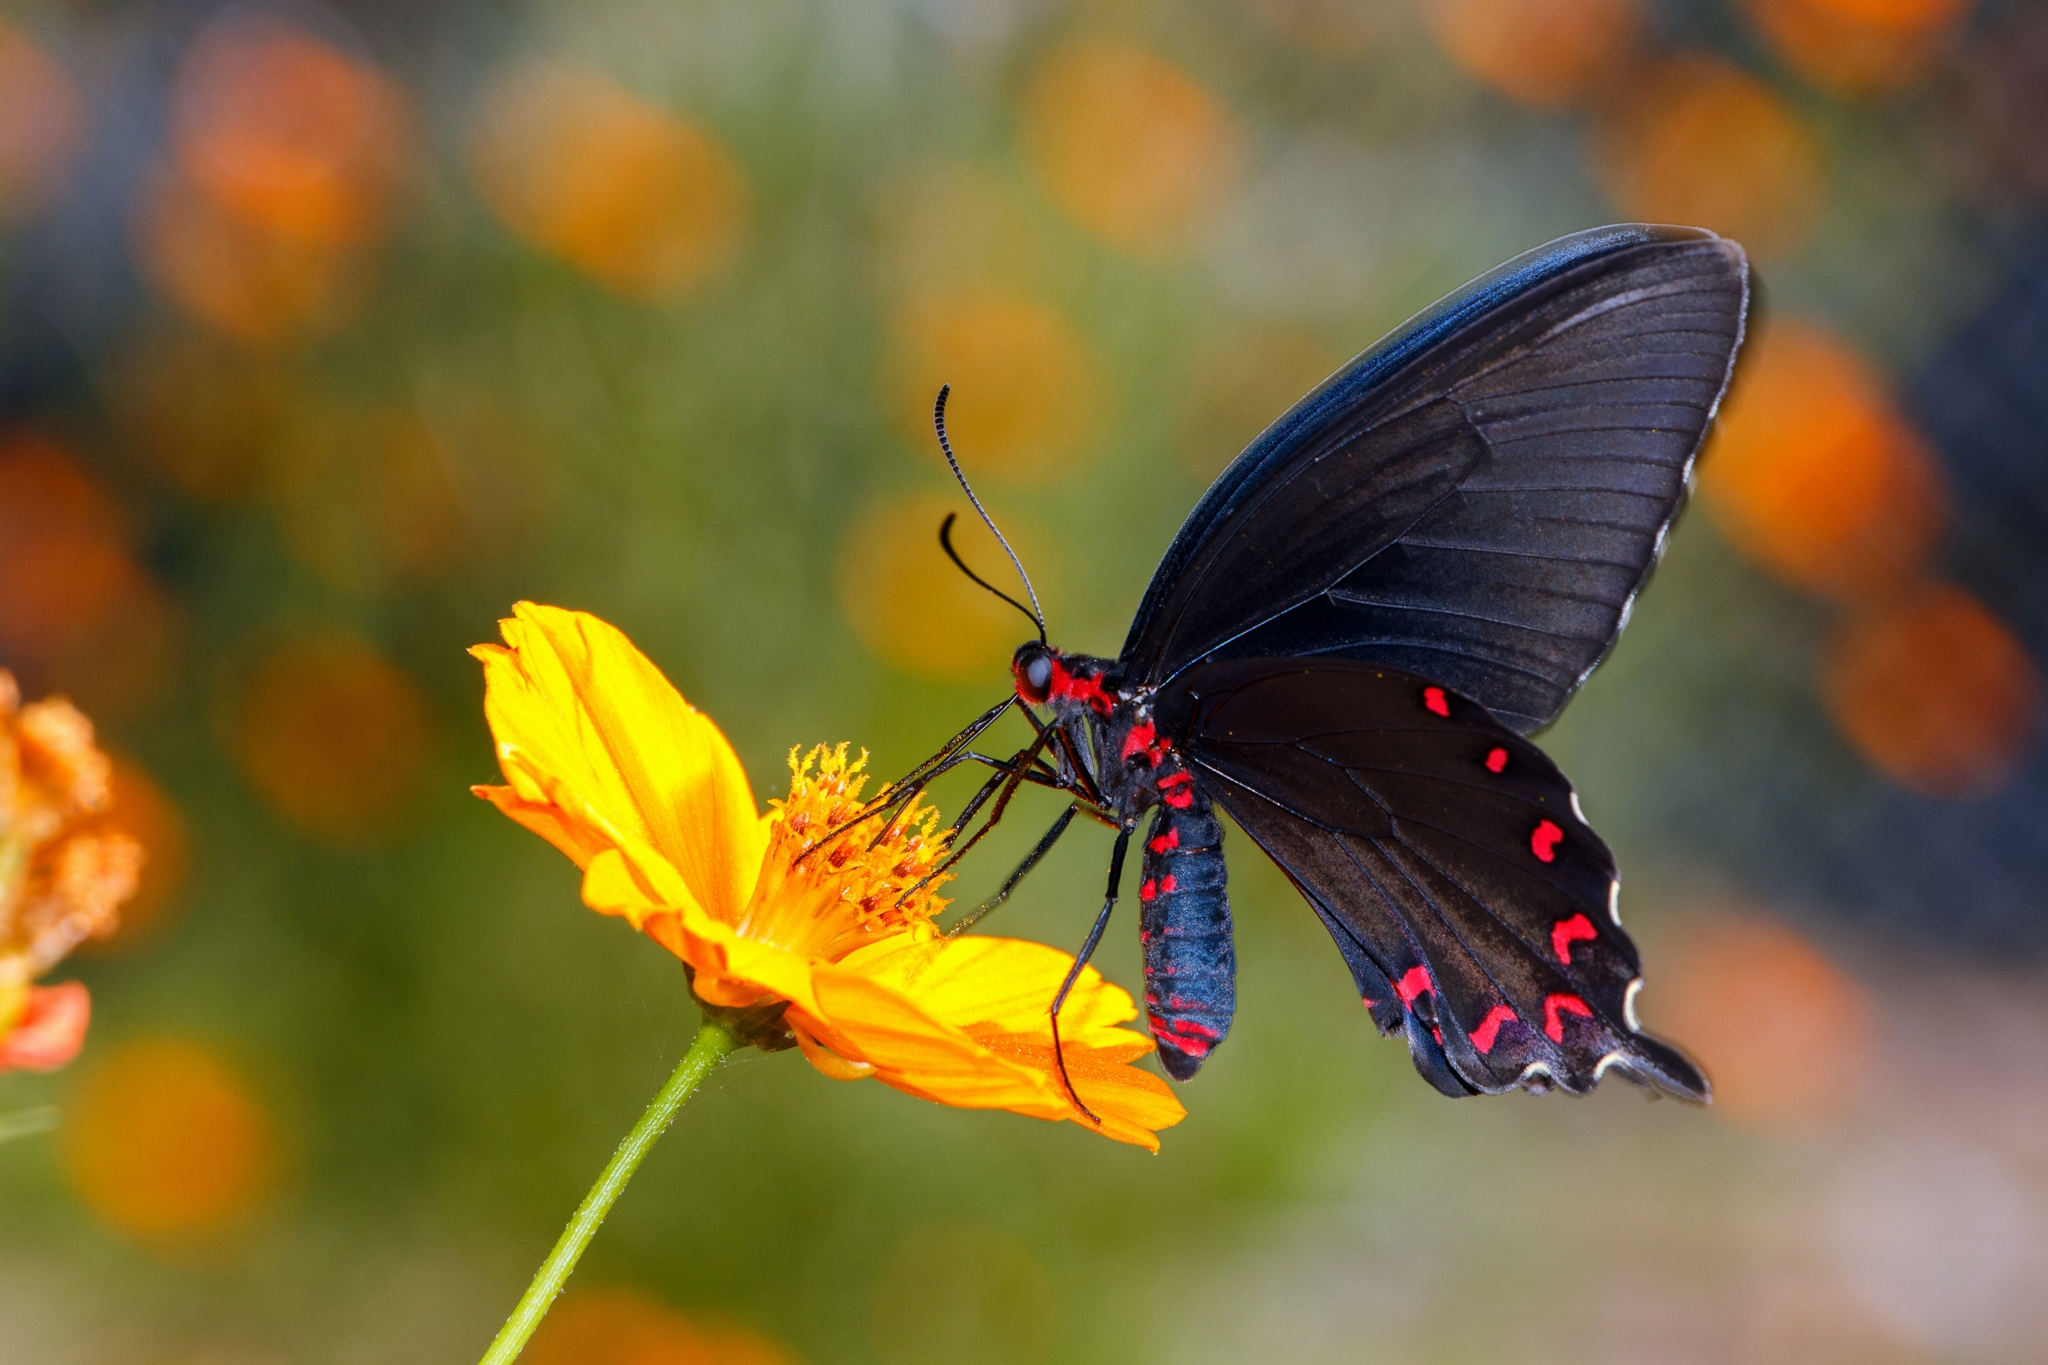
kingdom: Animalia
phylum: Arthropoda
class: Insecta
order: Lepidoptera
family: Papilionidae
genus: Parides
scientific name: Parides montezuma
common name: Montezuma's cattleheart
